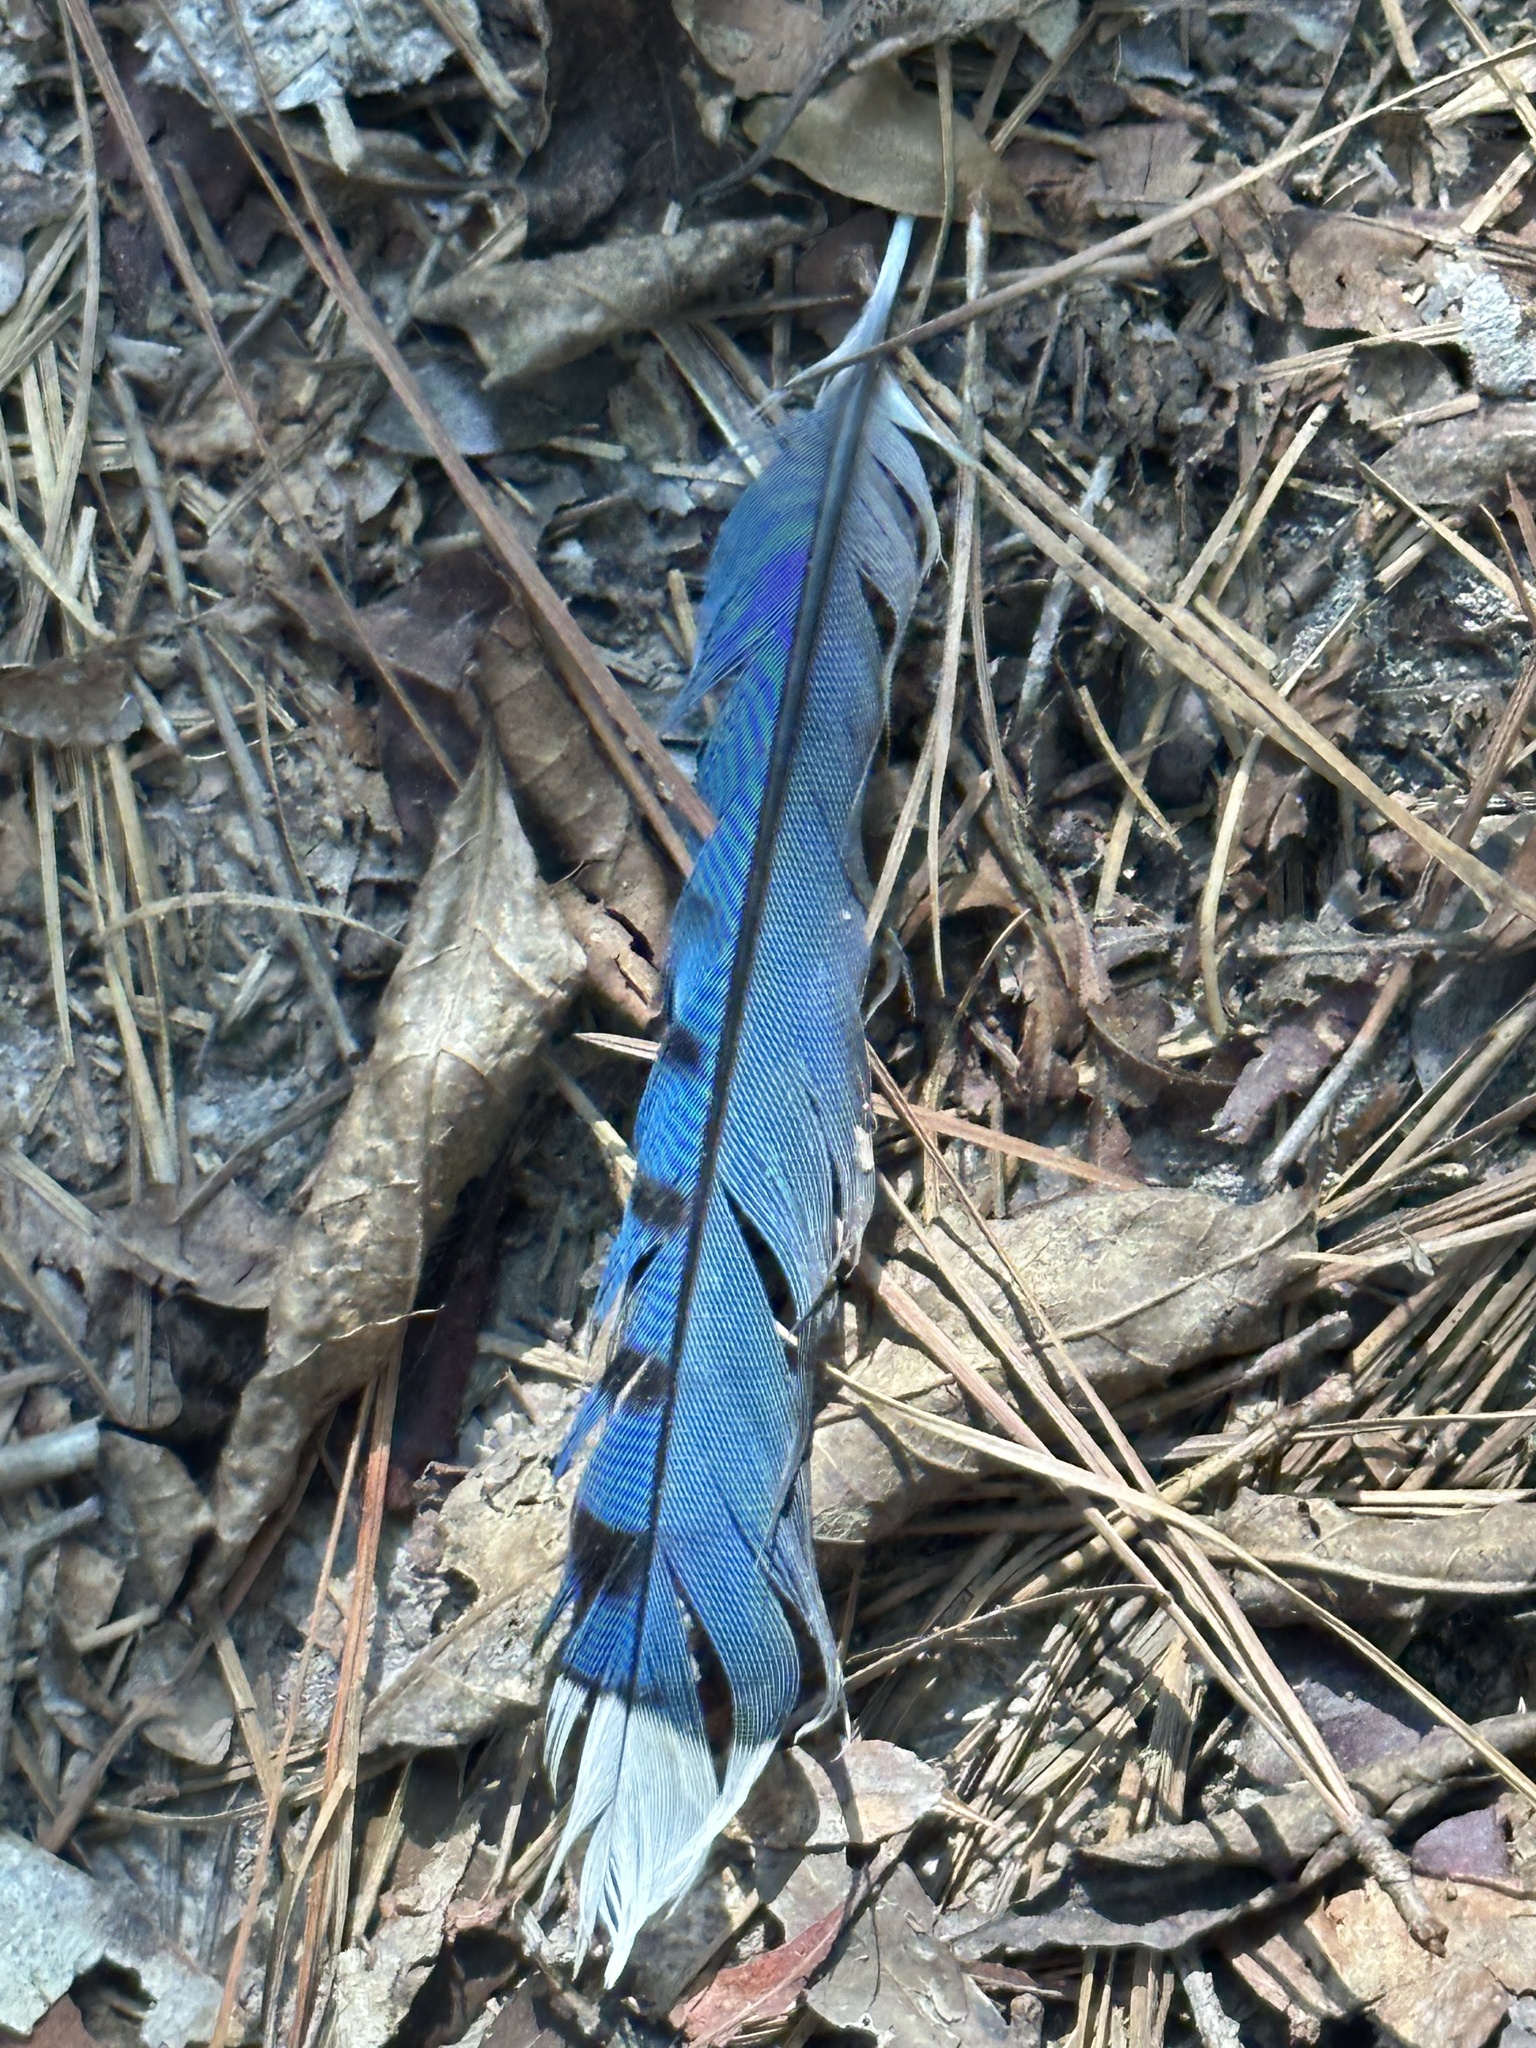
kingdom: Animalia
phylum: Chordata
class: Aves
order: Passeriformes
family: Corvidae
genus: Cyanocitta
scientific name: Cyanocitta cristata
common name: Blue jay
